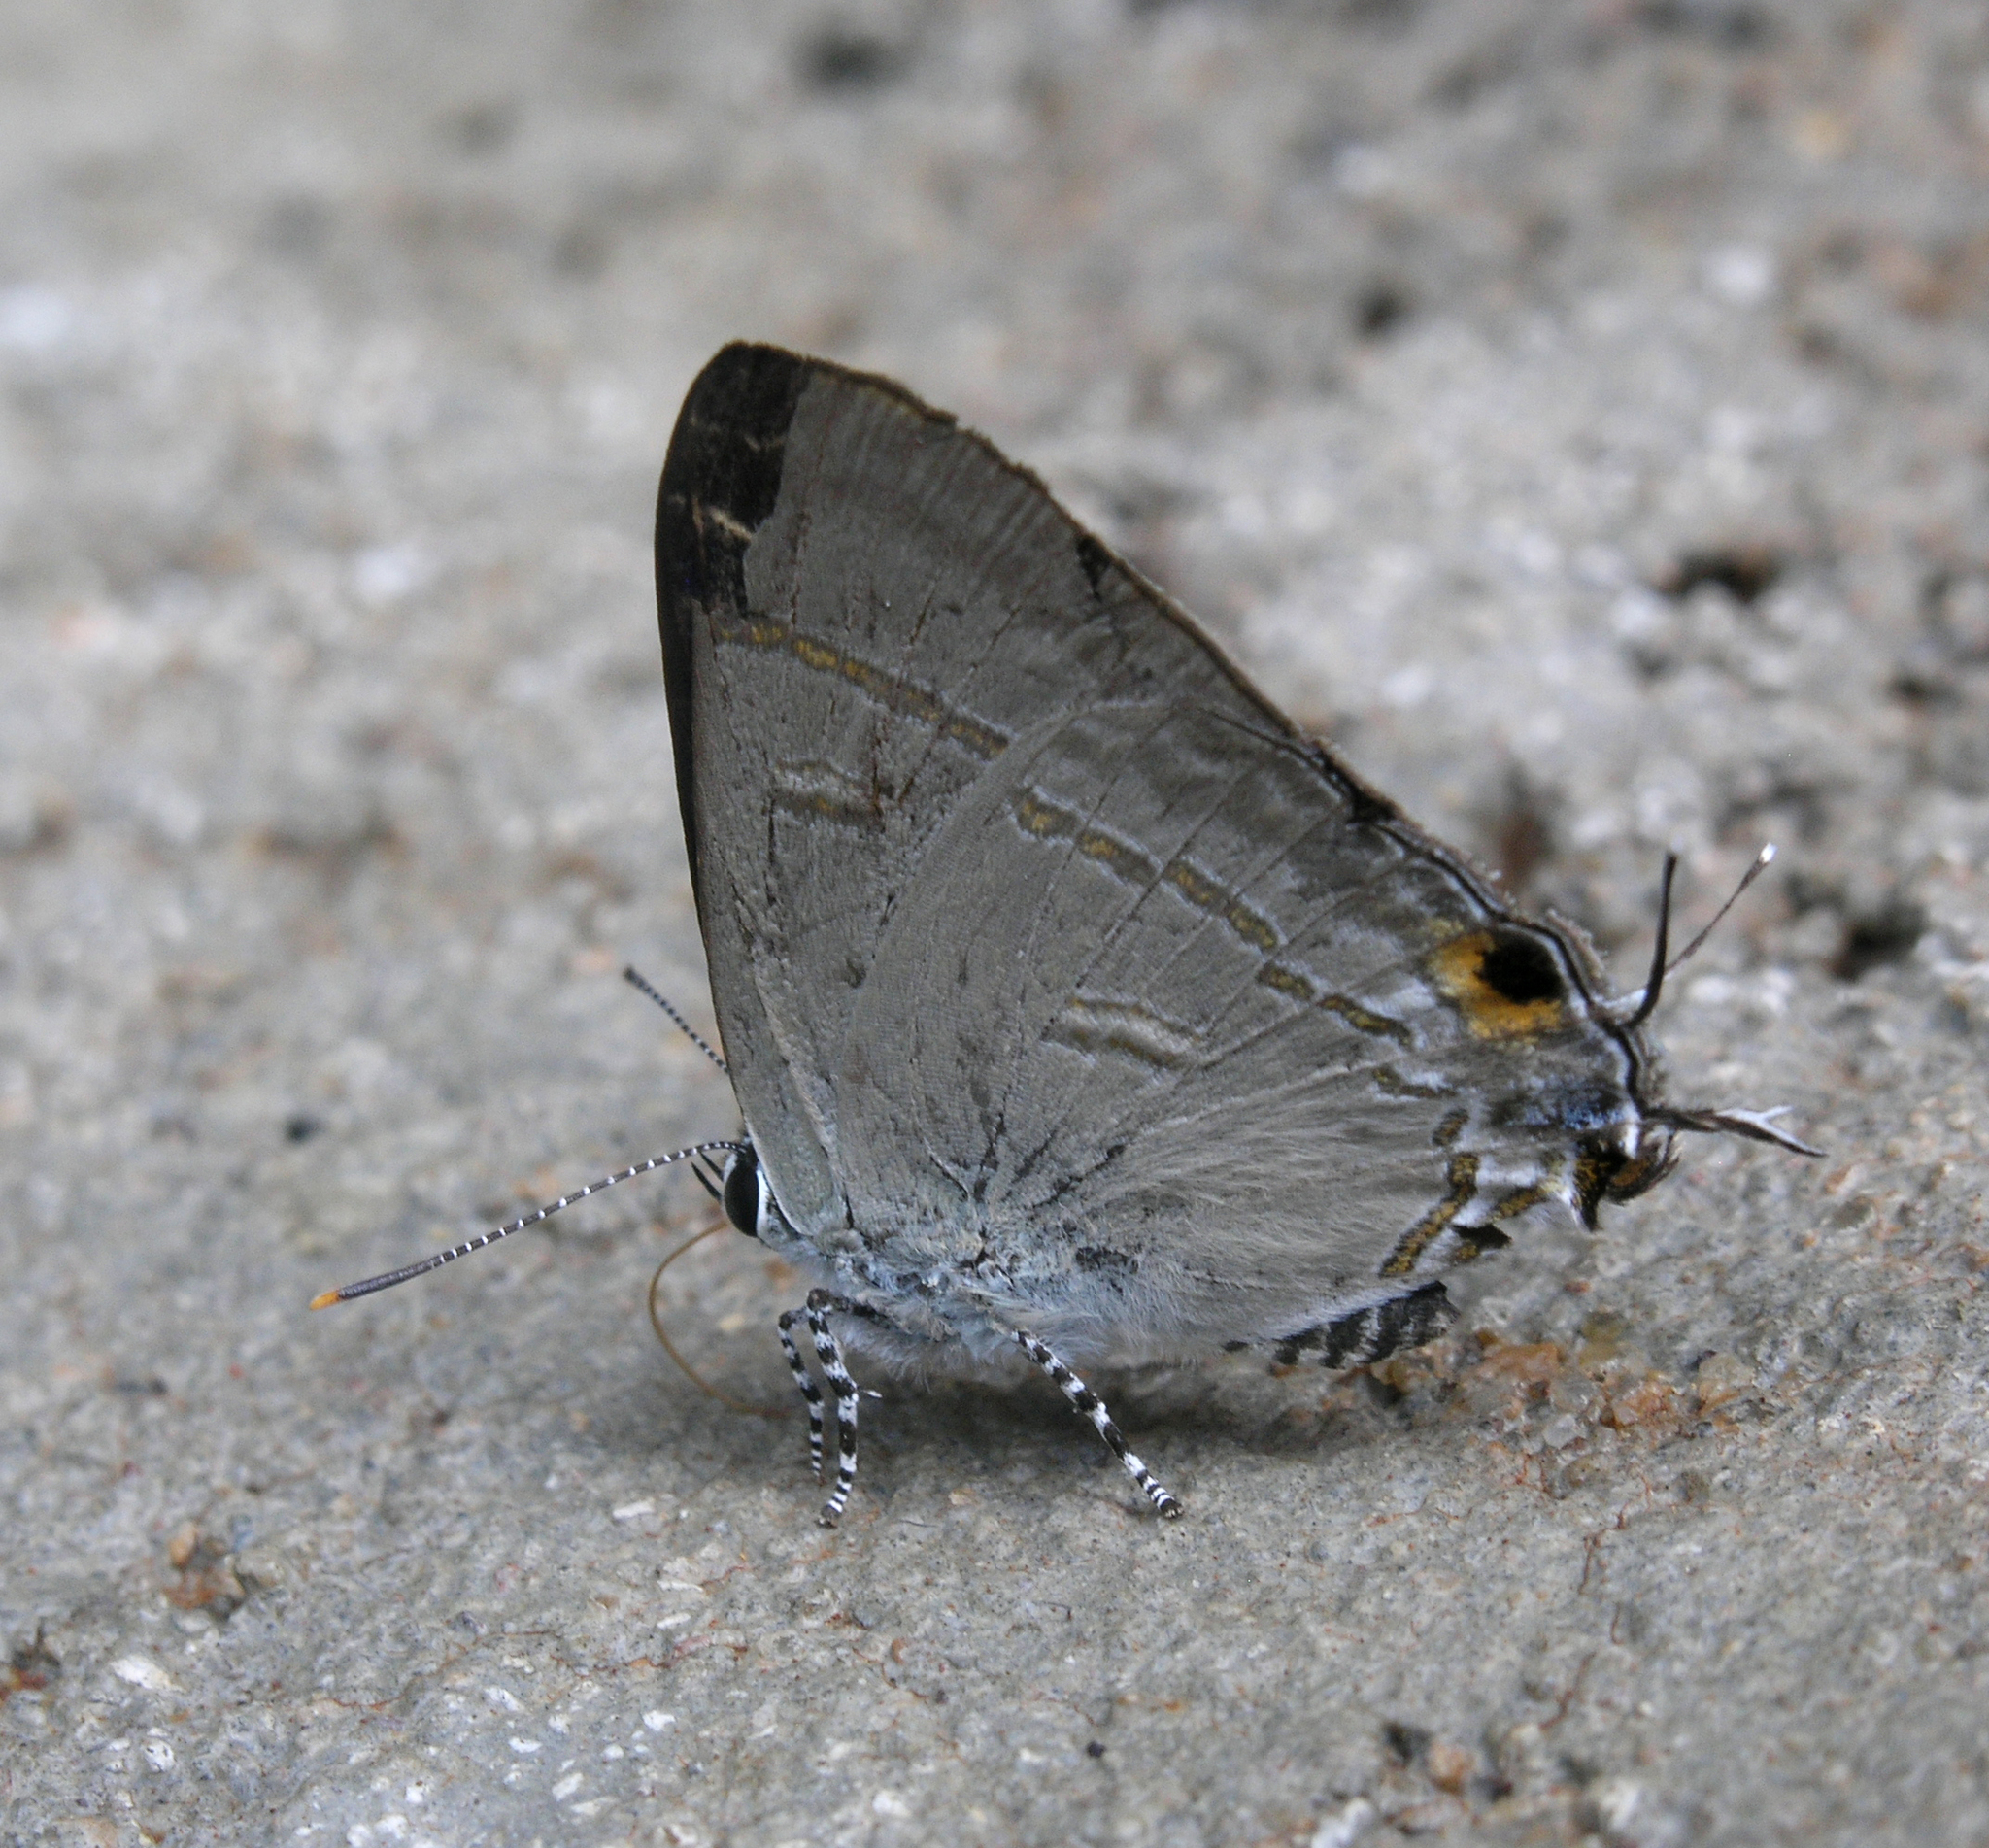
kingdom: Animalia
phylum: Arthropoda
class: Insecta
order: Lepidoptera
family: Lycaenidae
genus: Hypolycaena
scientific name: Hypolycaena erylus
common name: Common tit
